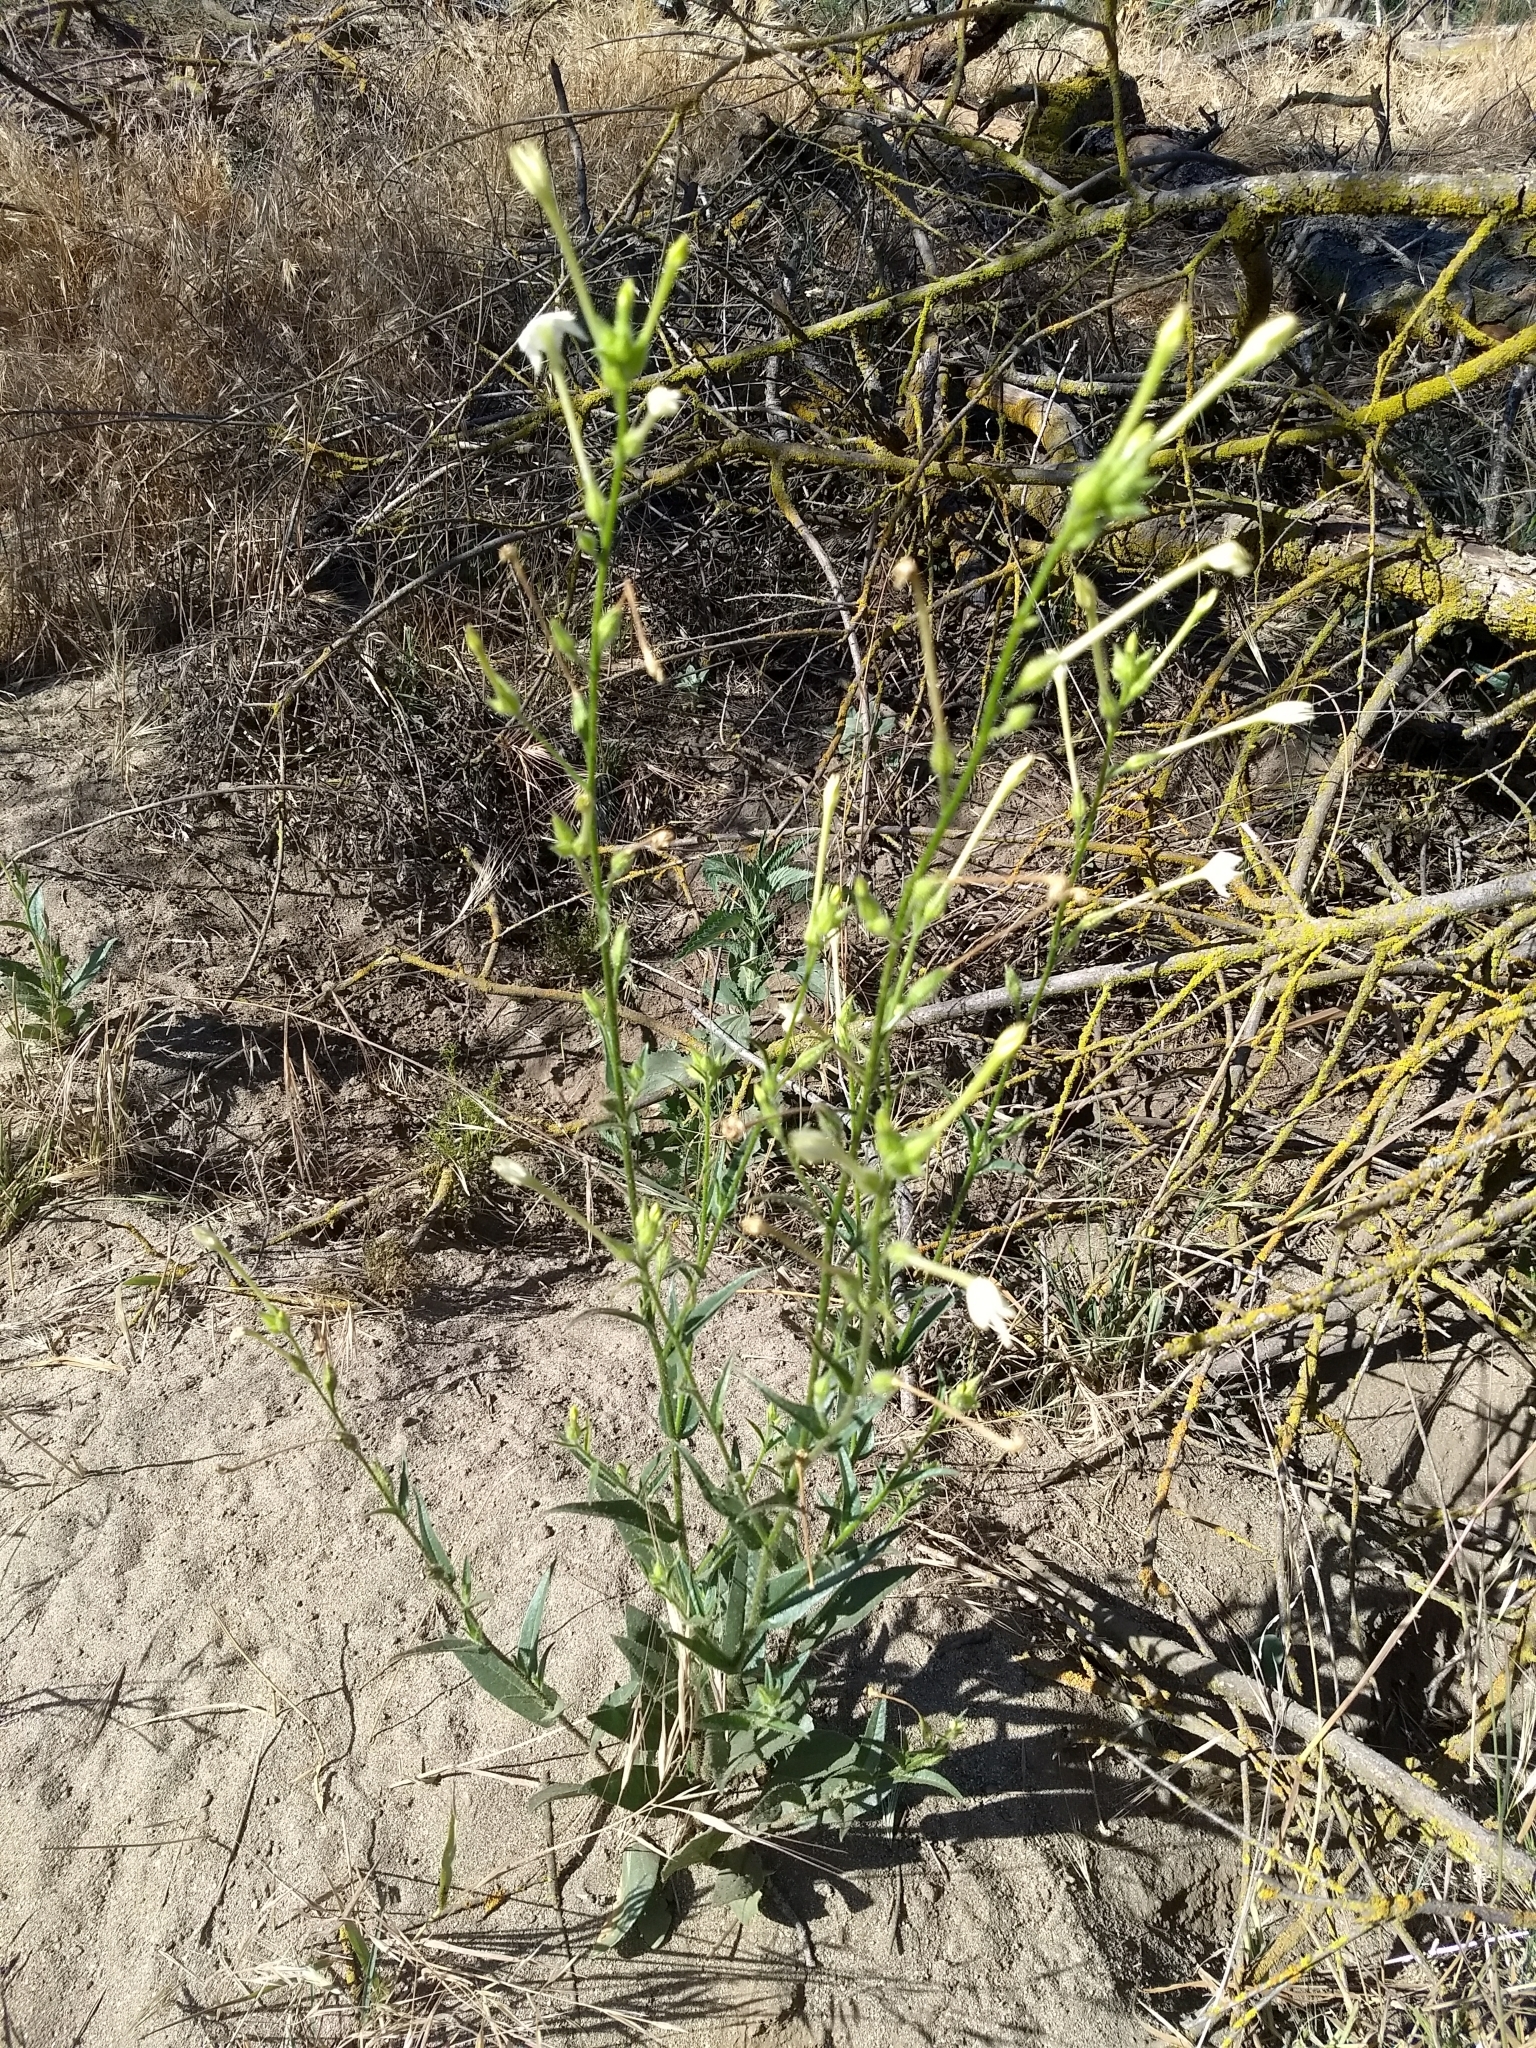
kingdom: Plantae
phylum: Tracheophyta
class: Magnoliopsida
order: Solanales
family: Solanaceae
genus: Nicotiana
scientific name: Nicotiana quadrivalvis
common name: Indian tobacco
